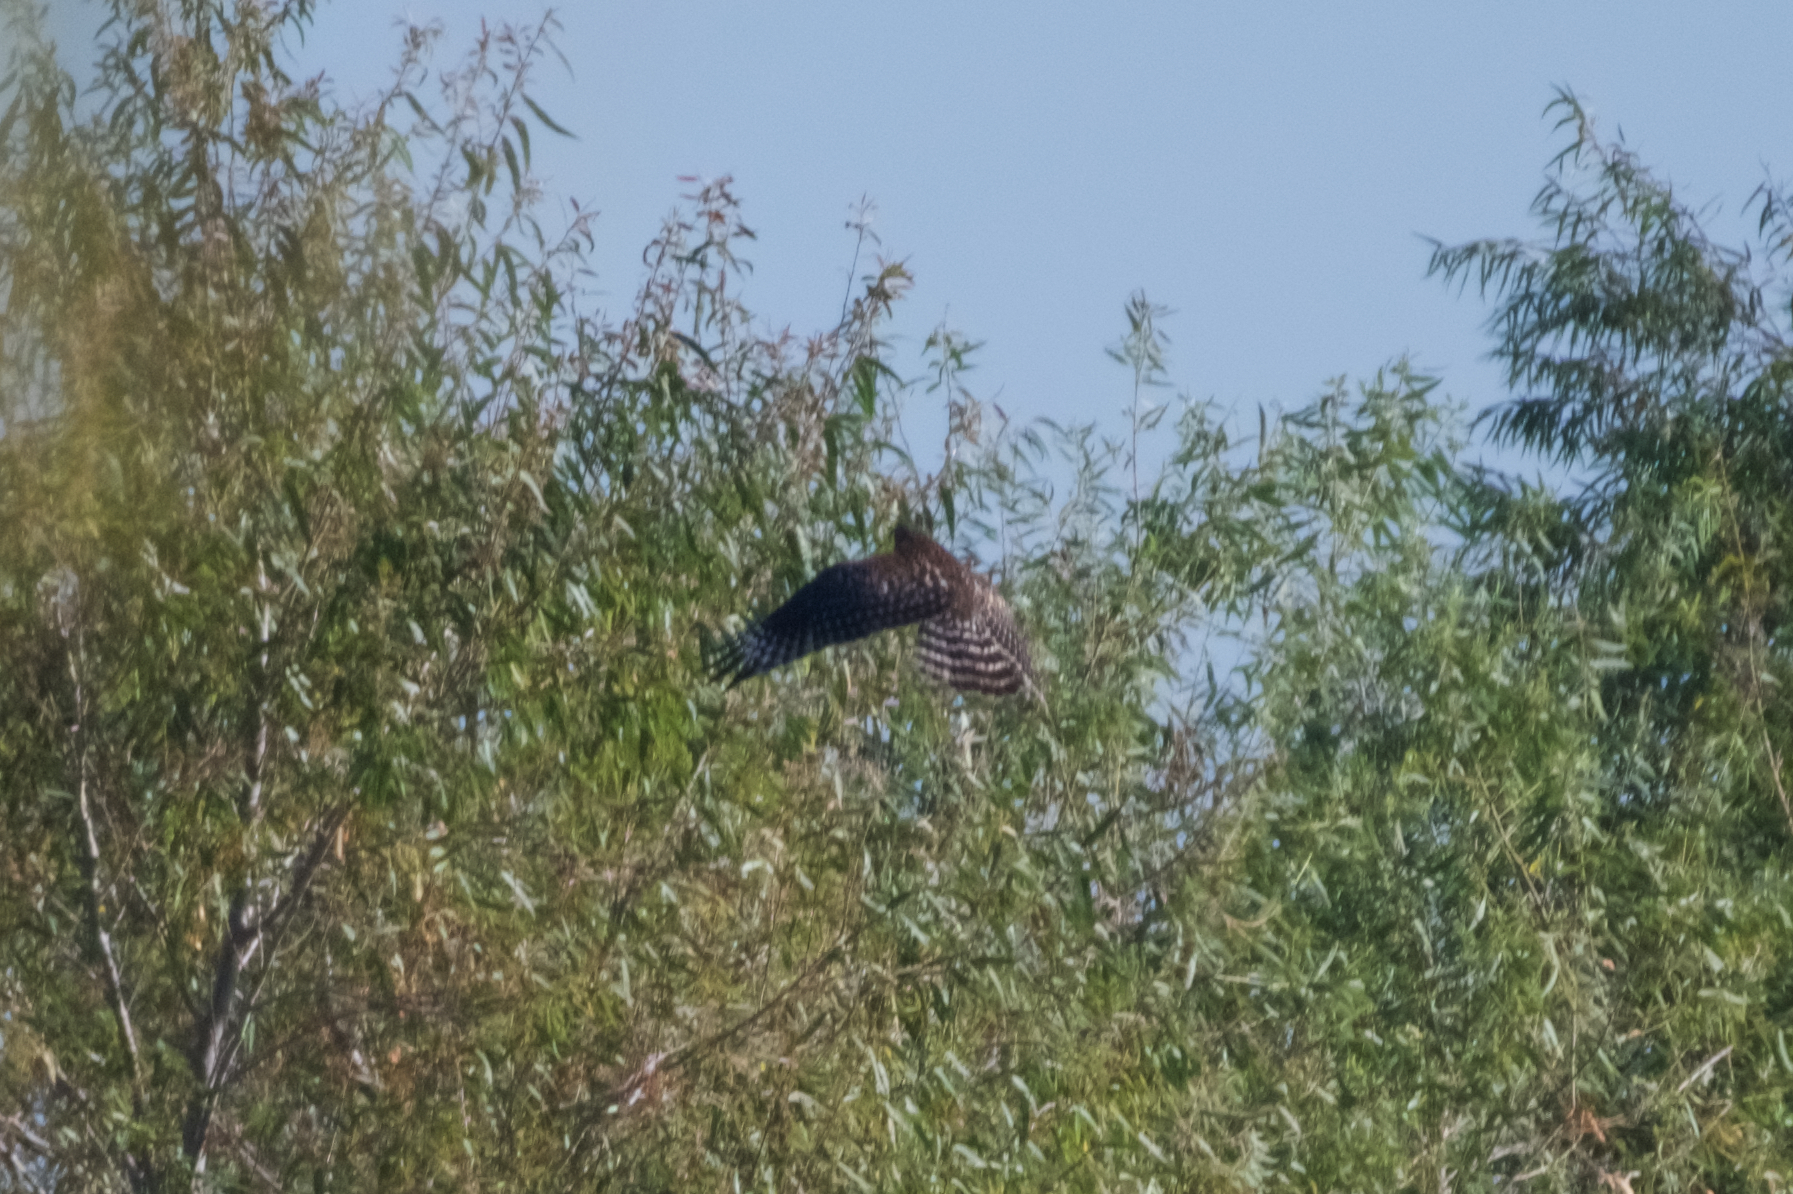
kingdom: Animalia
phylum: Chordata
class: Aves
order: Accipitriformes
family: Accipitridae
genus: Buteo
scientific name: Buteo lineatus
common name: Red-shouldered hawk
